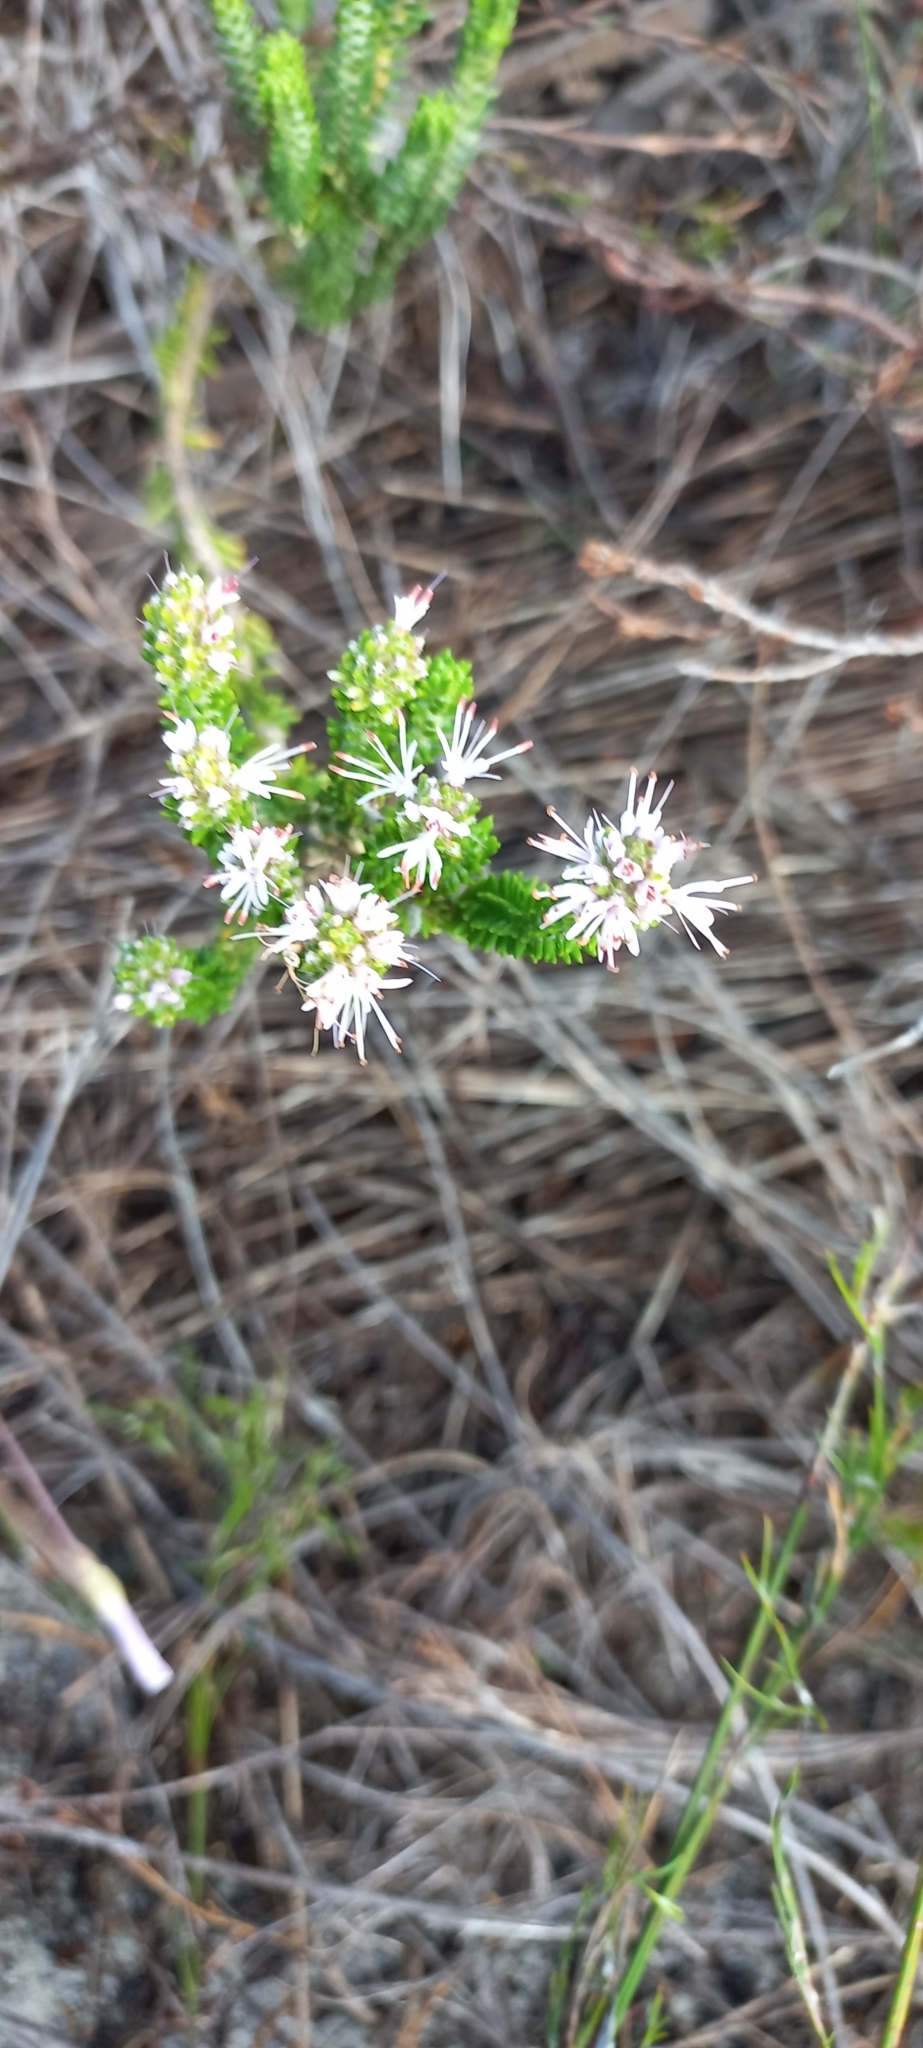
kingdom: Plantae
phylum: Tracheophyta
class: Magnoliopsida
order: Lamiales
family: Stilbaceae
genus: Stilbe
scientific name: Stilbe ericoides
